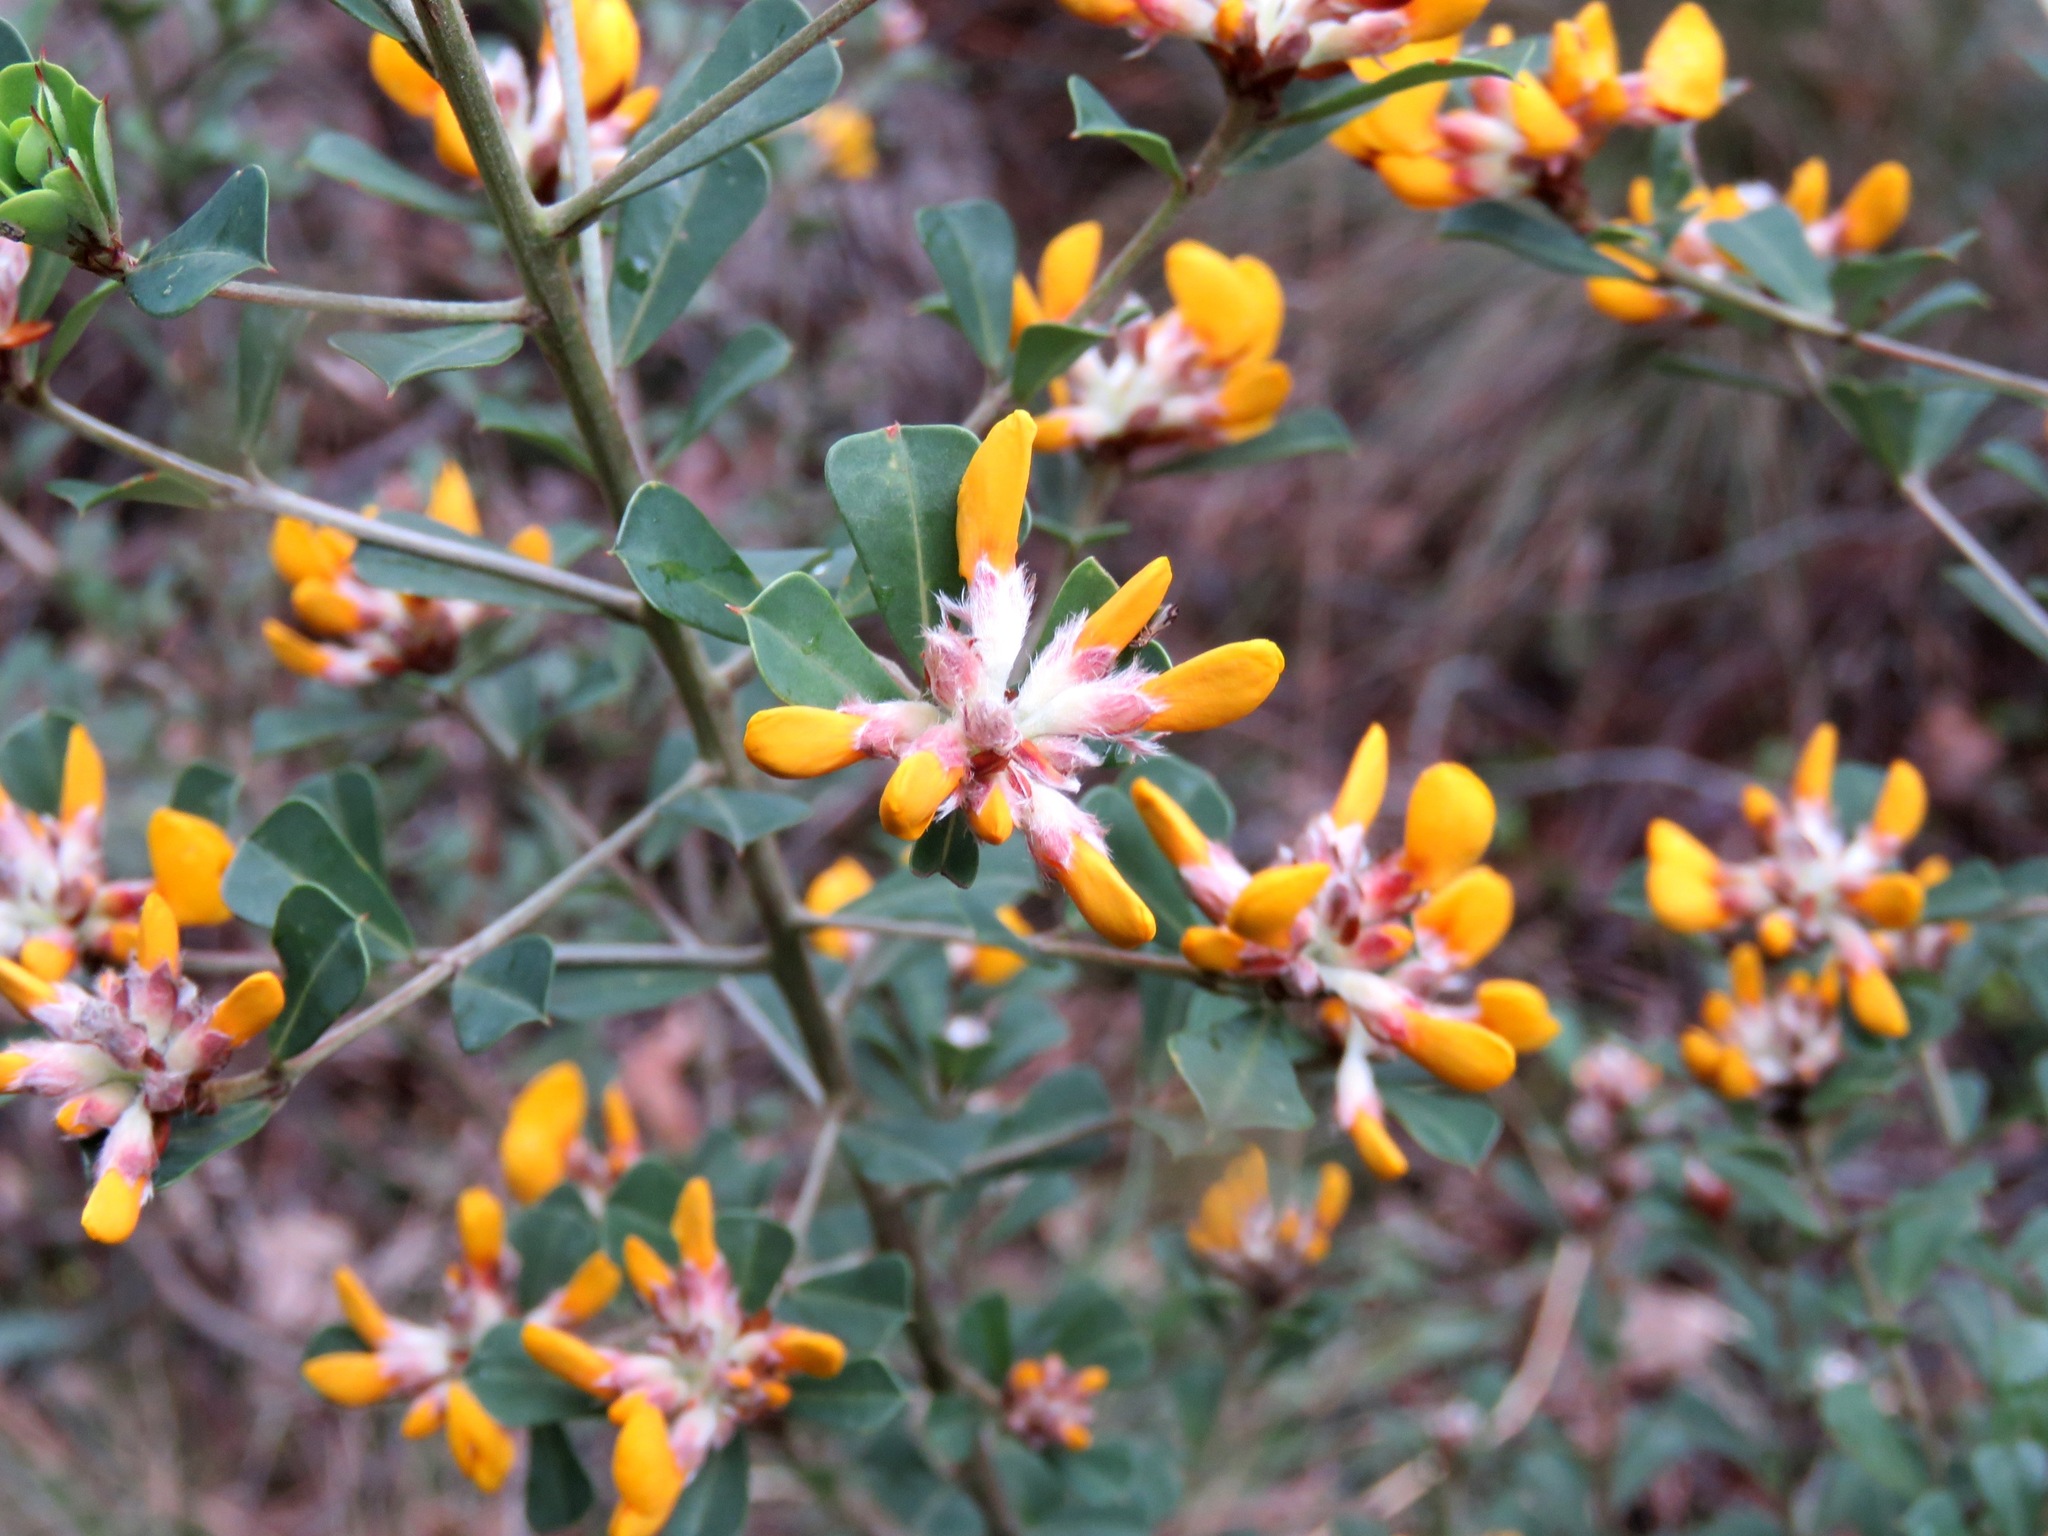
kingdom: Plantae
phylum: Tracheophyta
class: Magnoliopsida
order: Fabales
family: Fabaceae
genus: Pultenaea
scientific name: Pultenaea daphnoides
